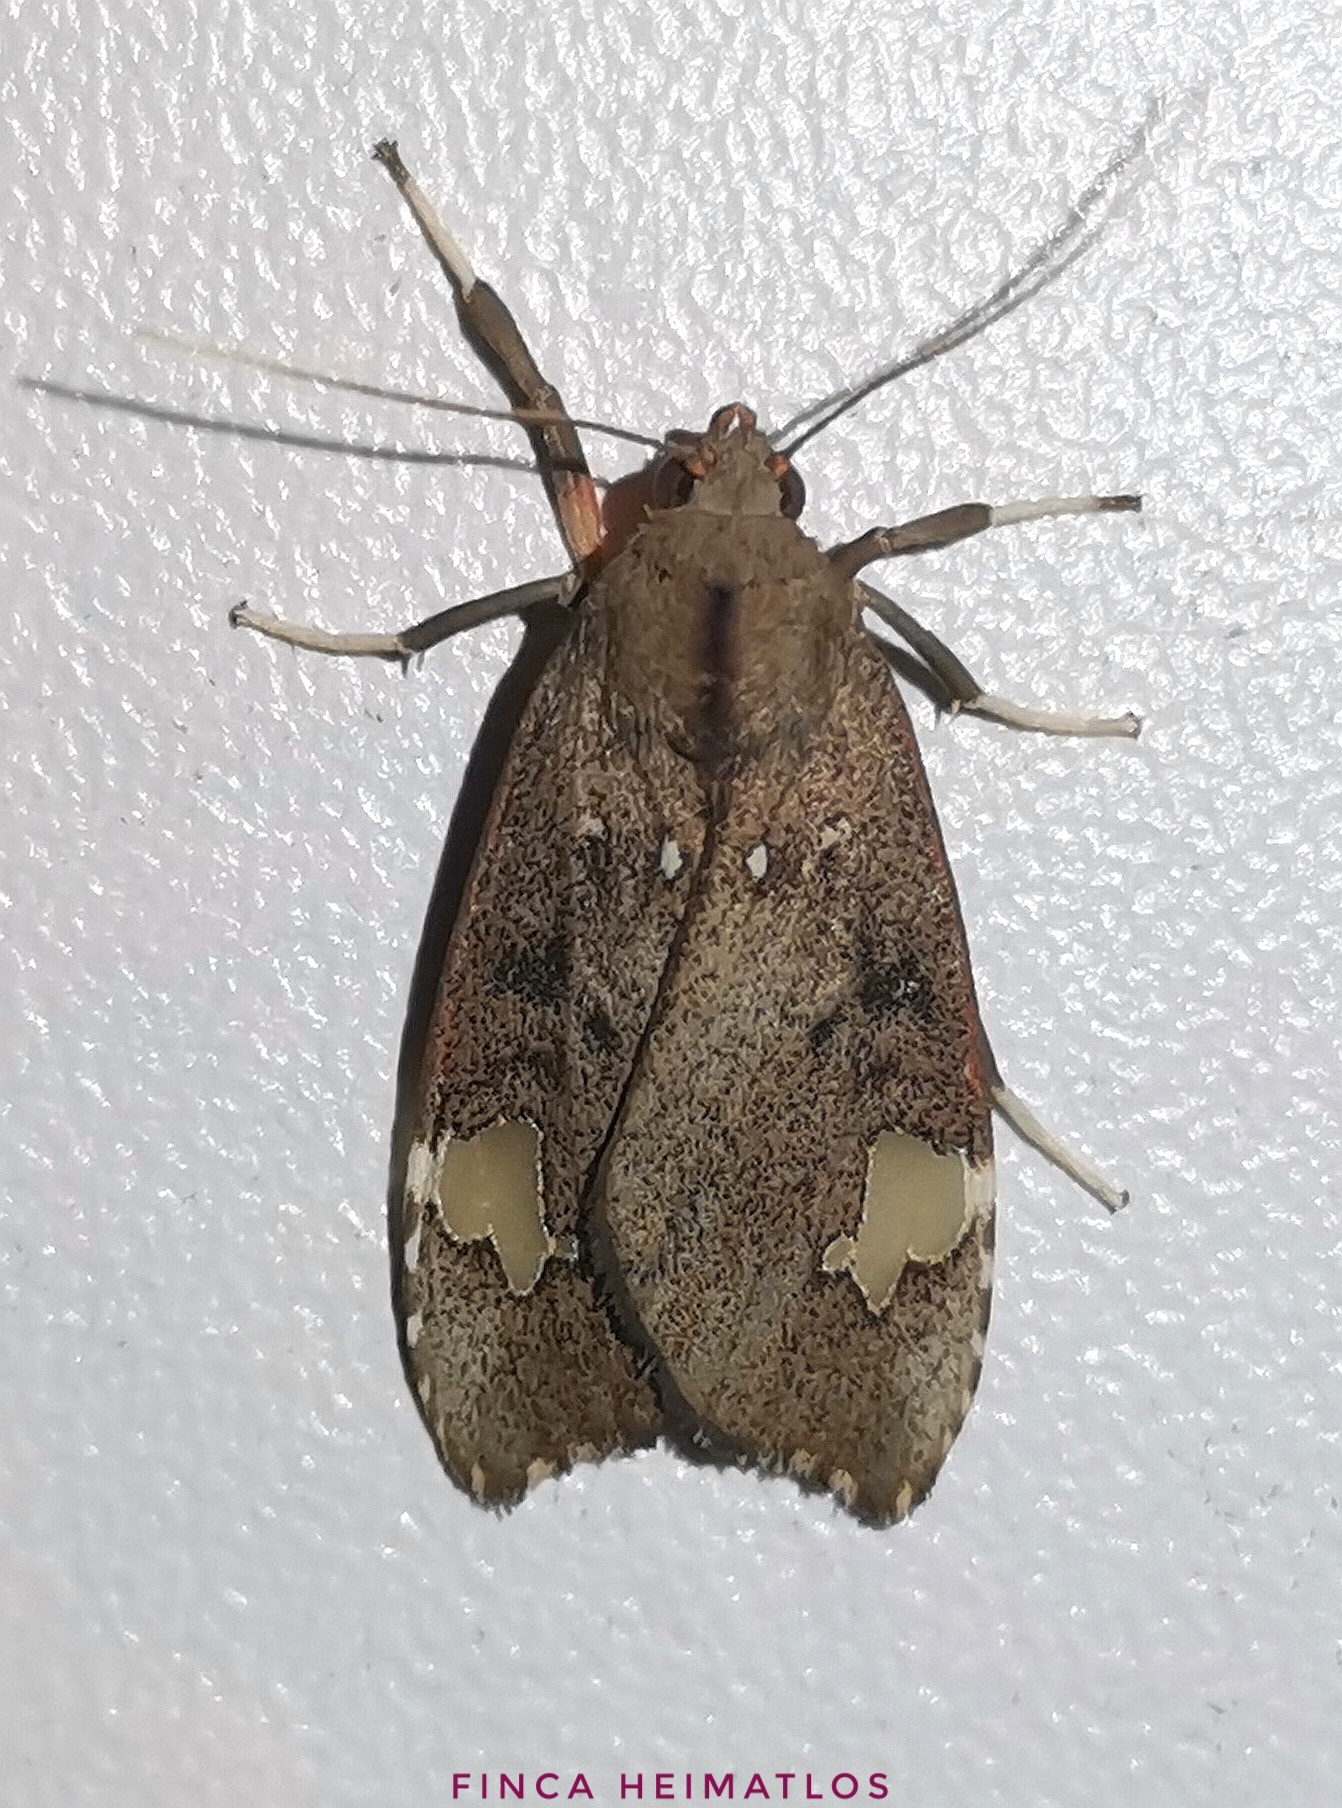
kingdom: Animalia
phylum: Arthropoda
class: Insecta
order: Lepidoptera
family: Erebidae
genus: Melese
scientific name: Melese babosa
